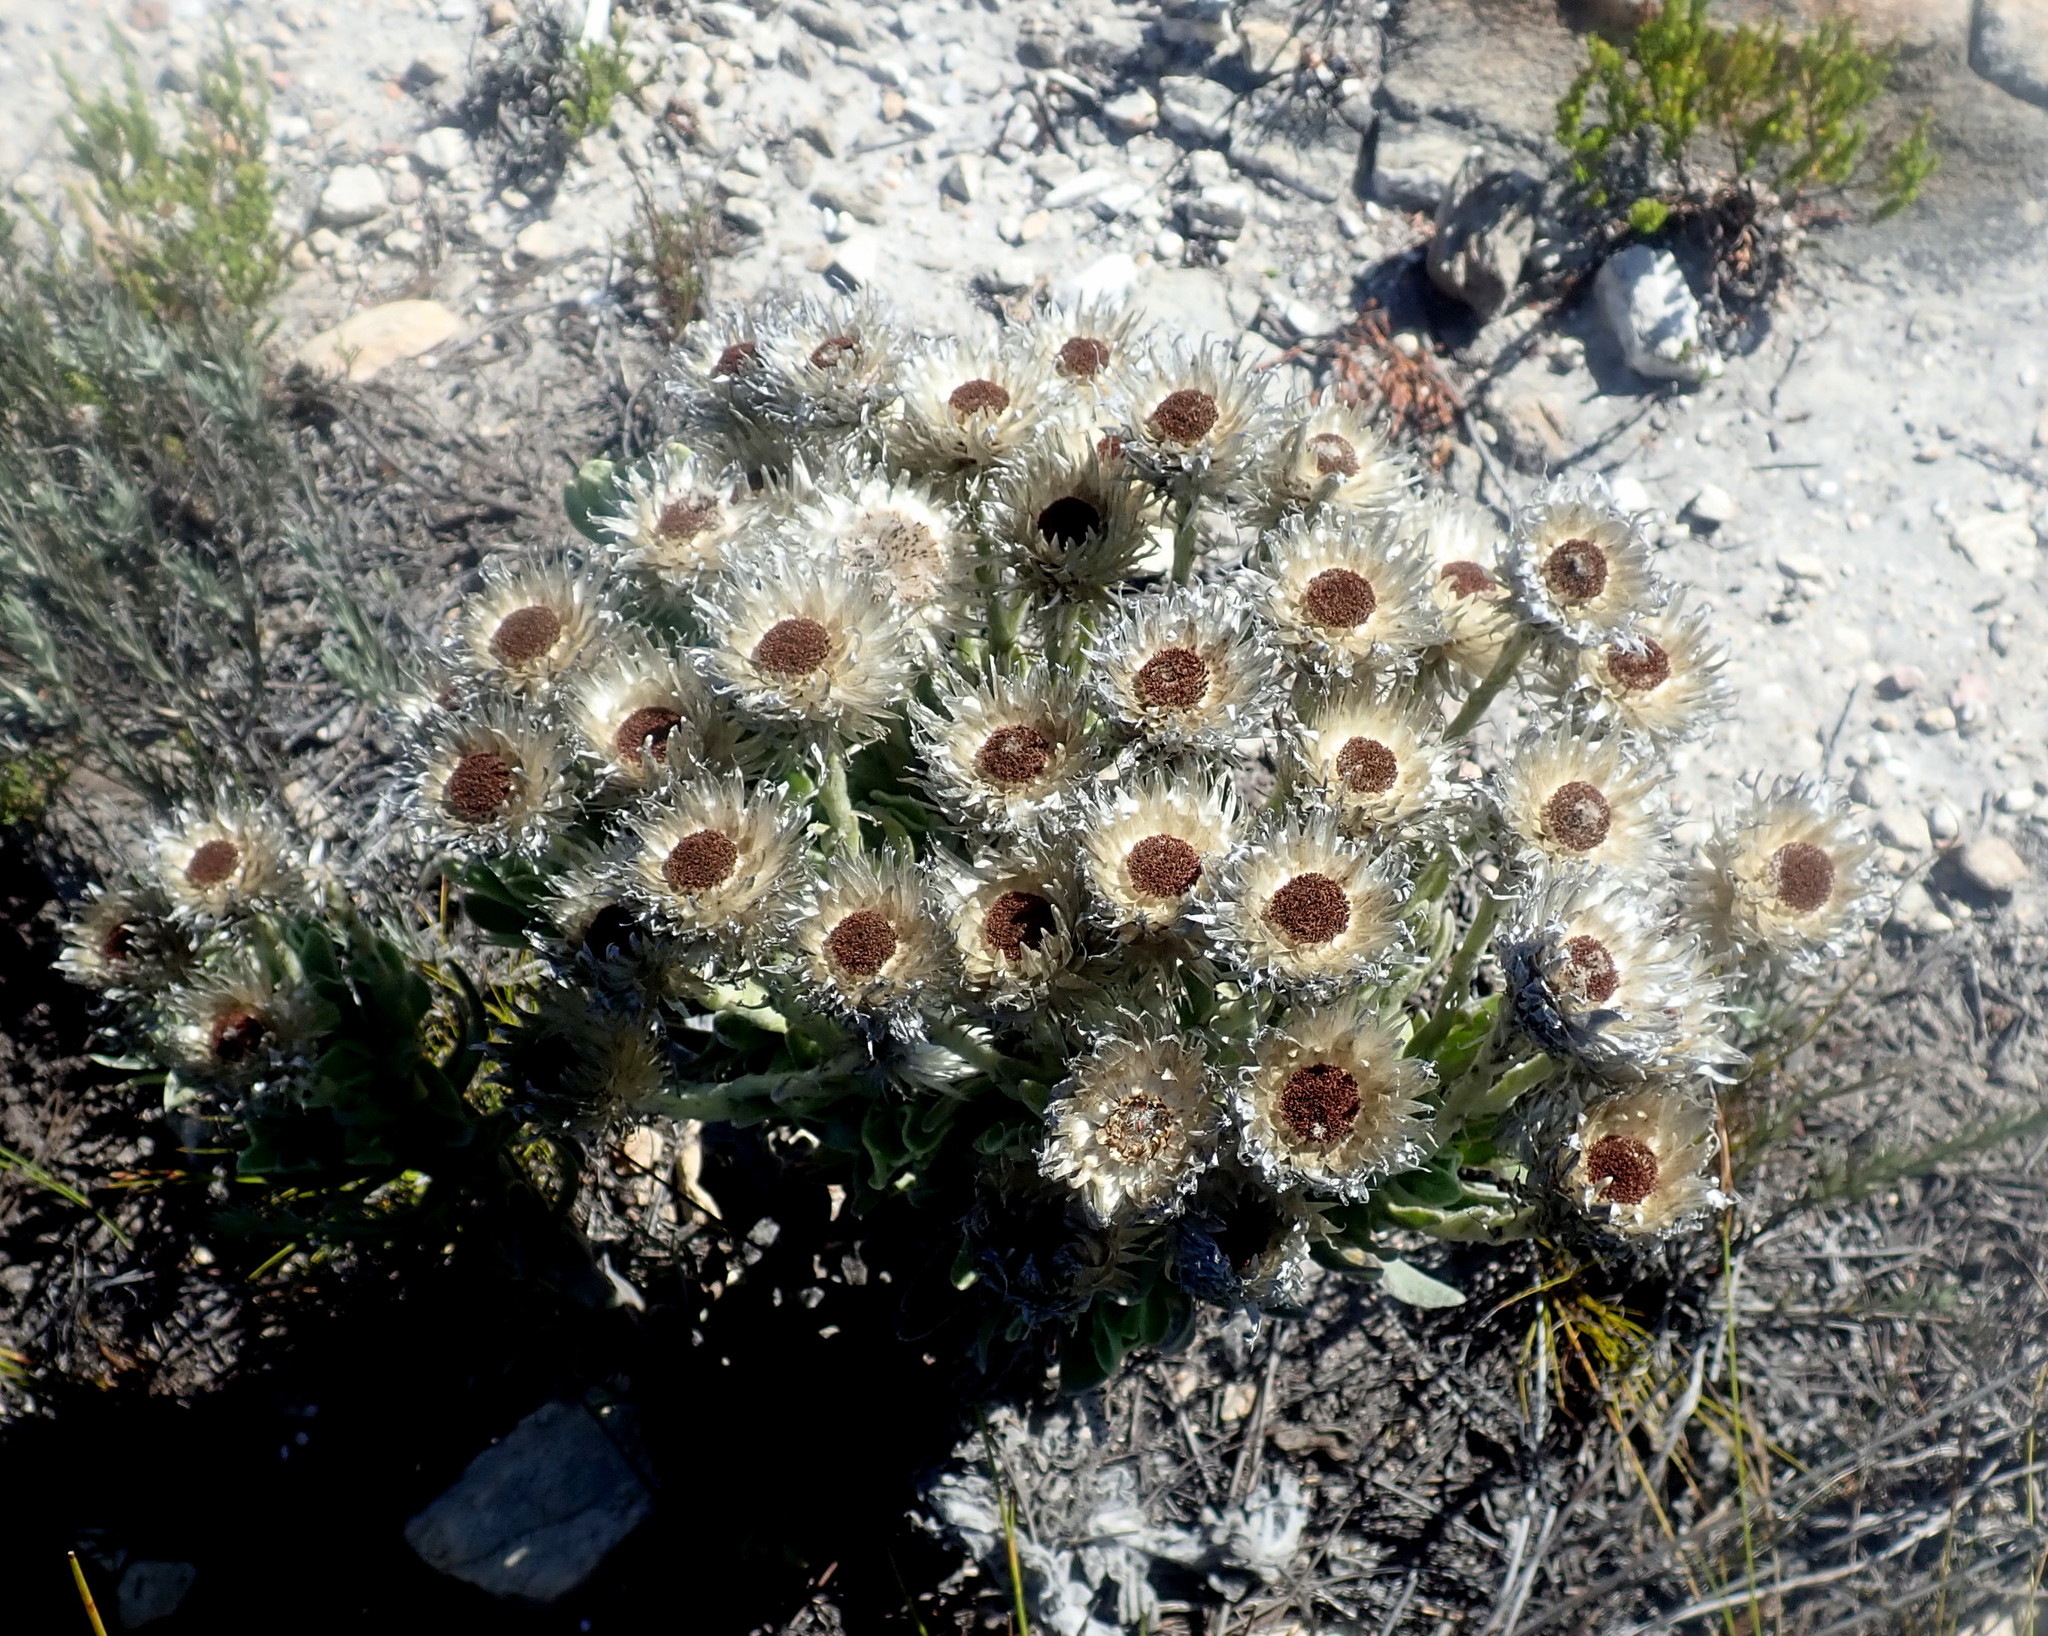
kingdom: Plantae
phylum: Tracheophyta
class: Magnoliopsida
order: Asterales
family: Asteraceae
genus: Syncarpha
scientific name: Syncarpha vestita
